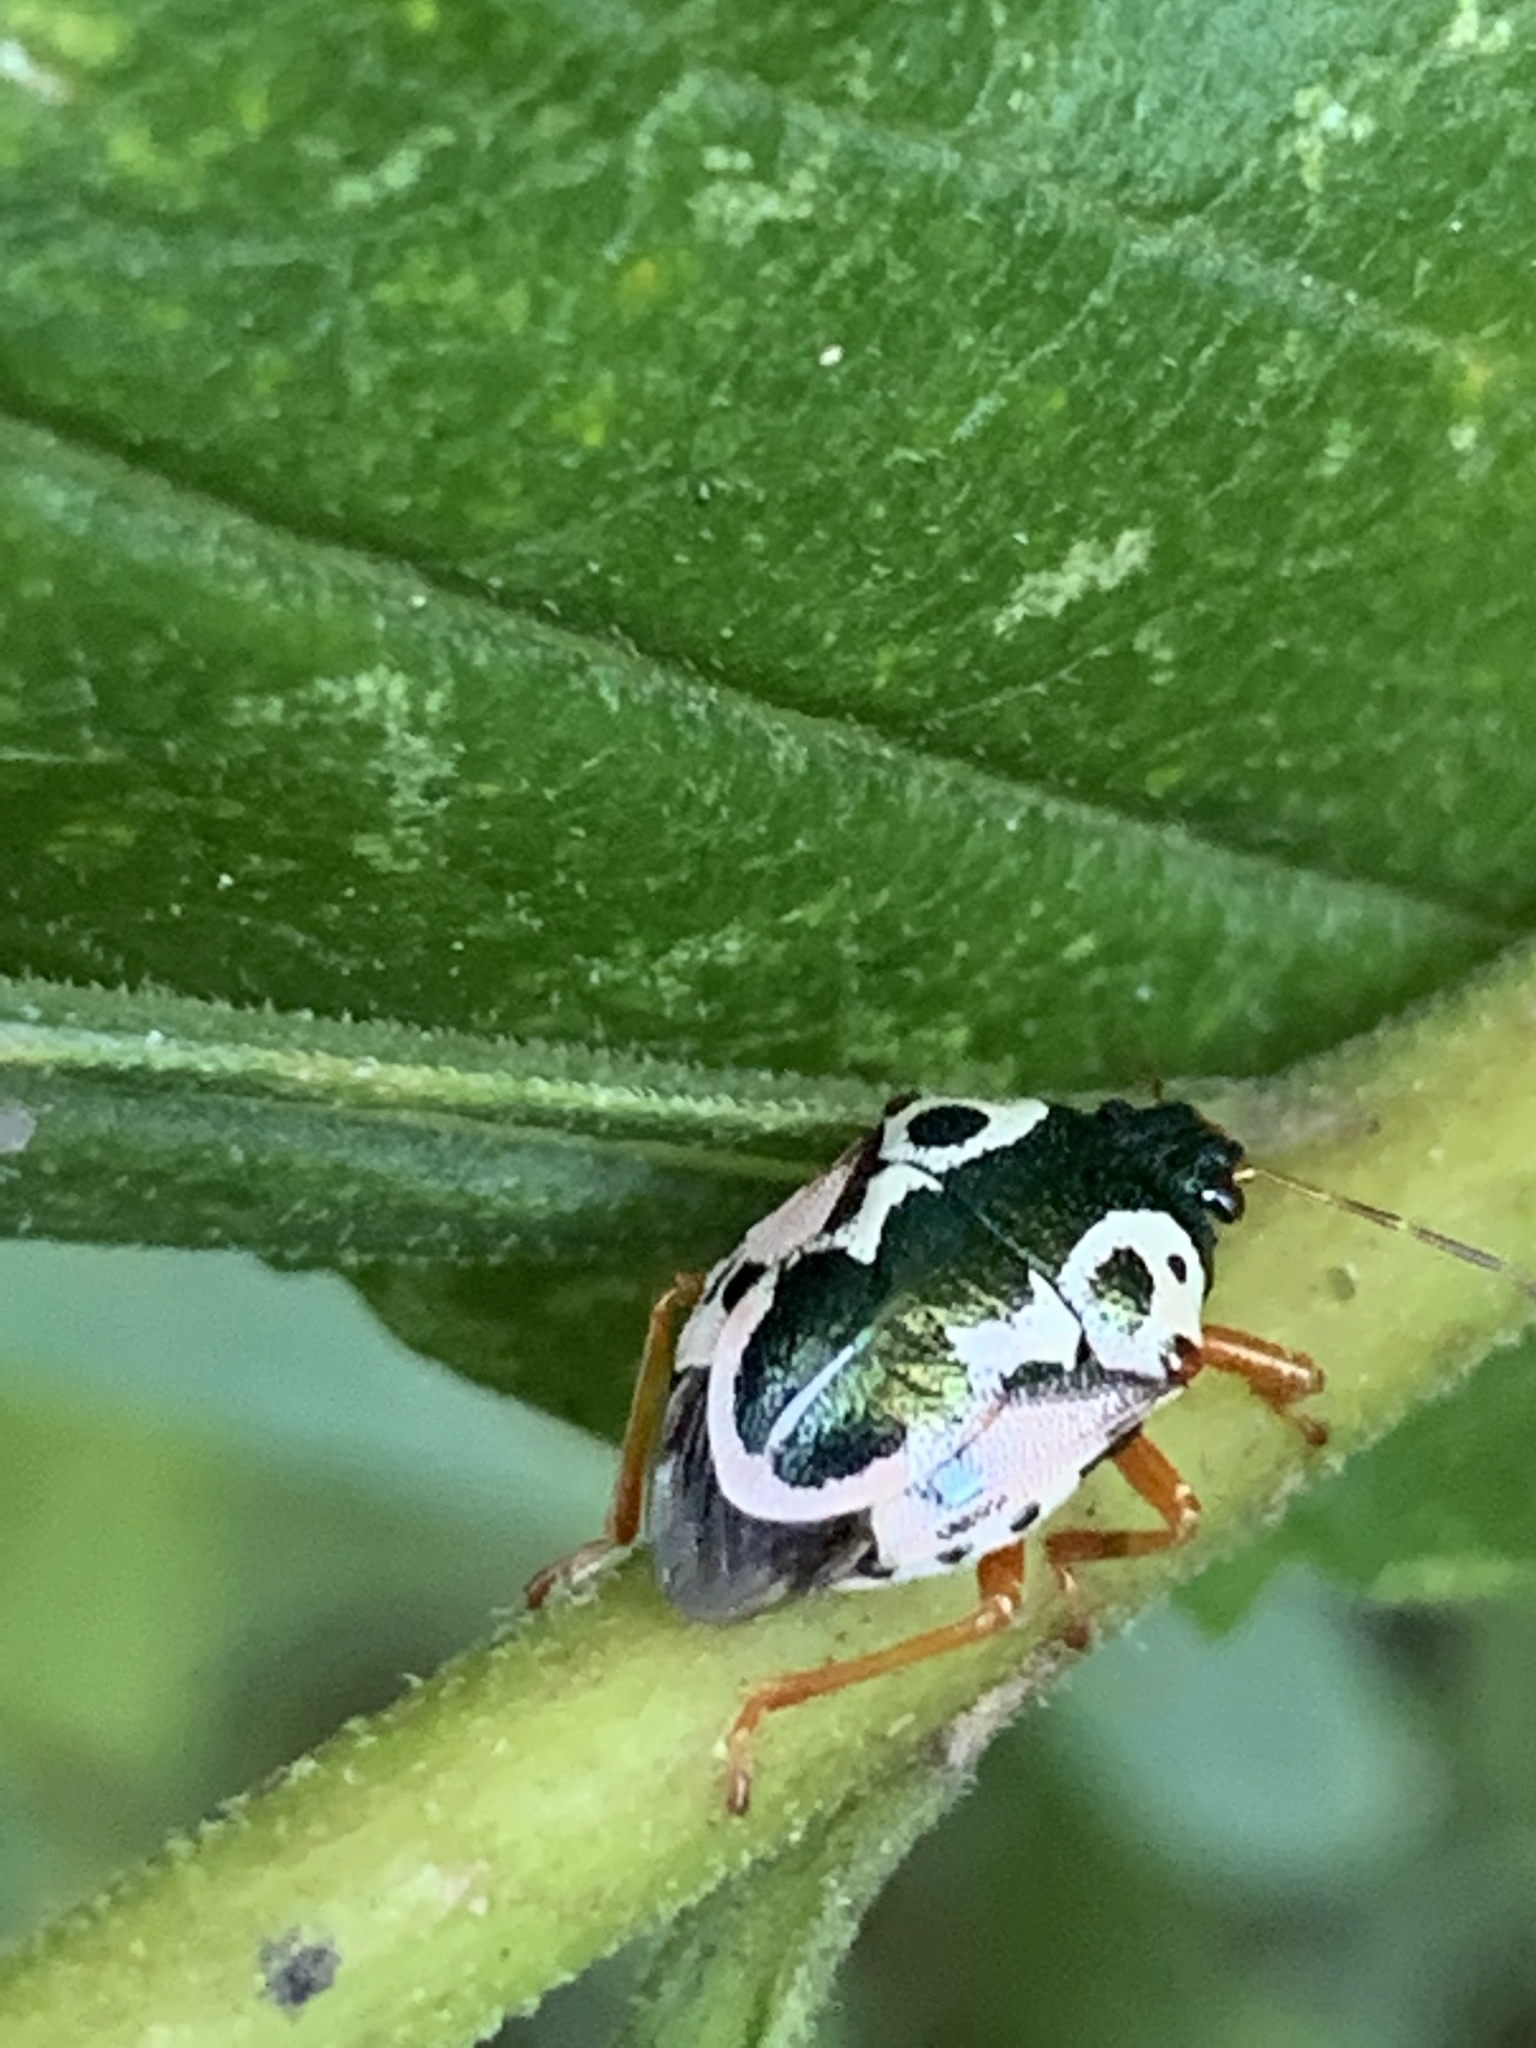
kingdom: Animalia
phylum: Arthropoda
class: Insecta
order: Hemiptera
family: Pentatomidae
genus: Stiretrus
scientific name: Stiretrus anchorago
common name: Anchor stink bug
